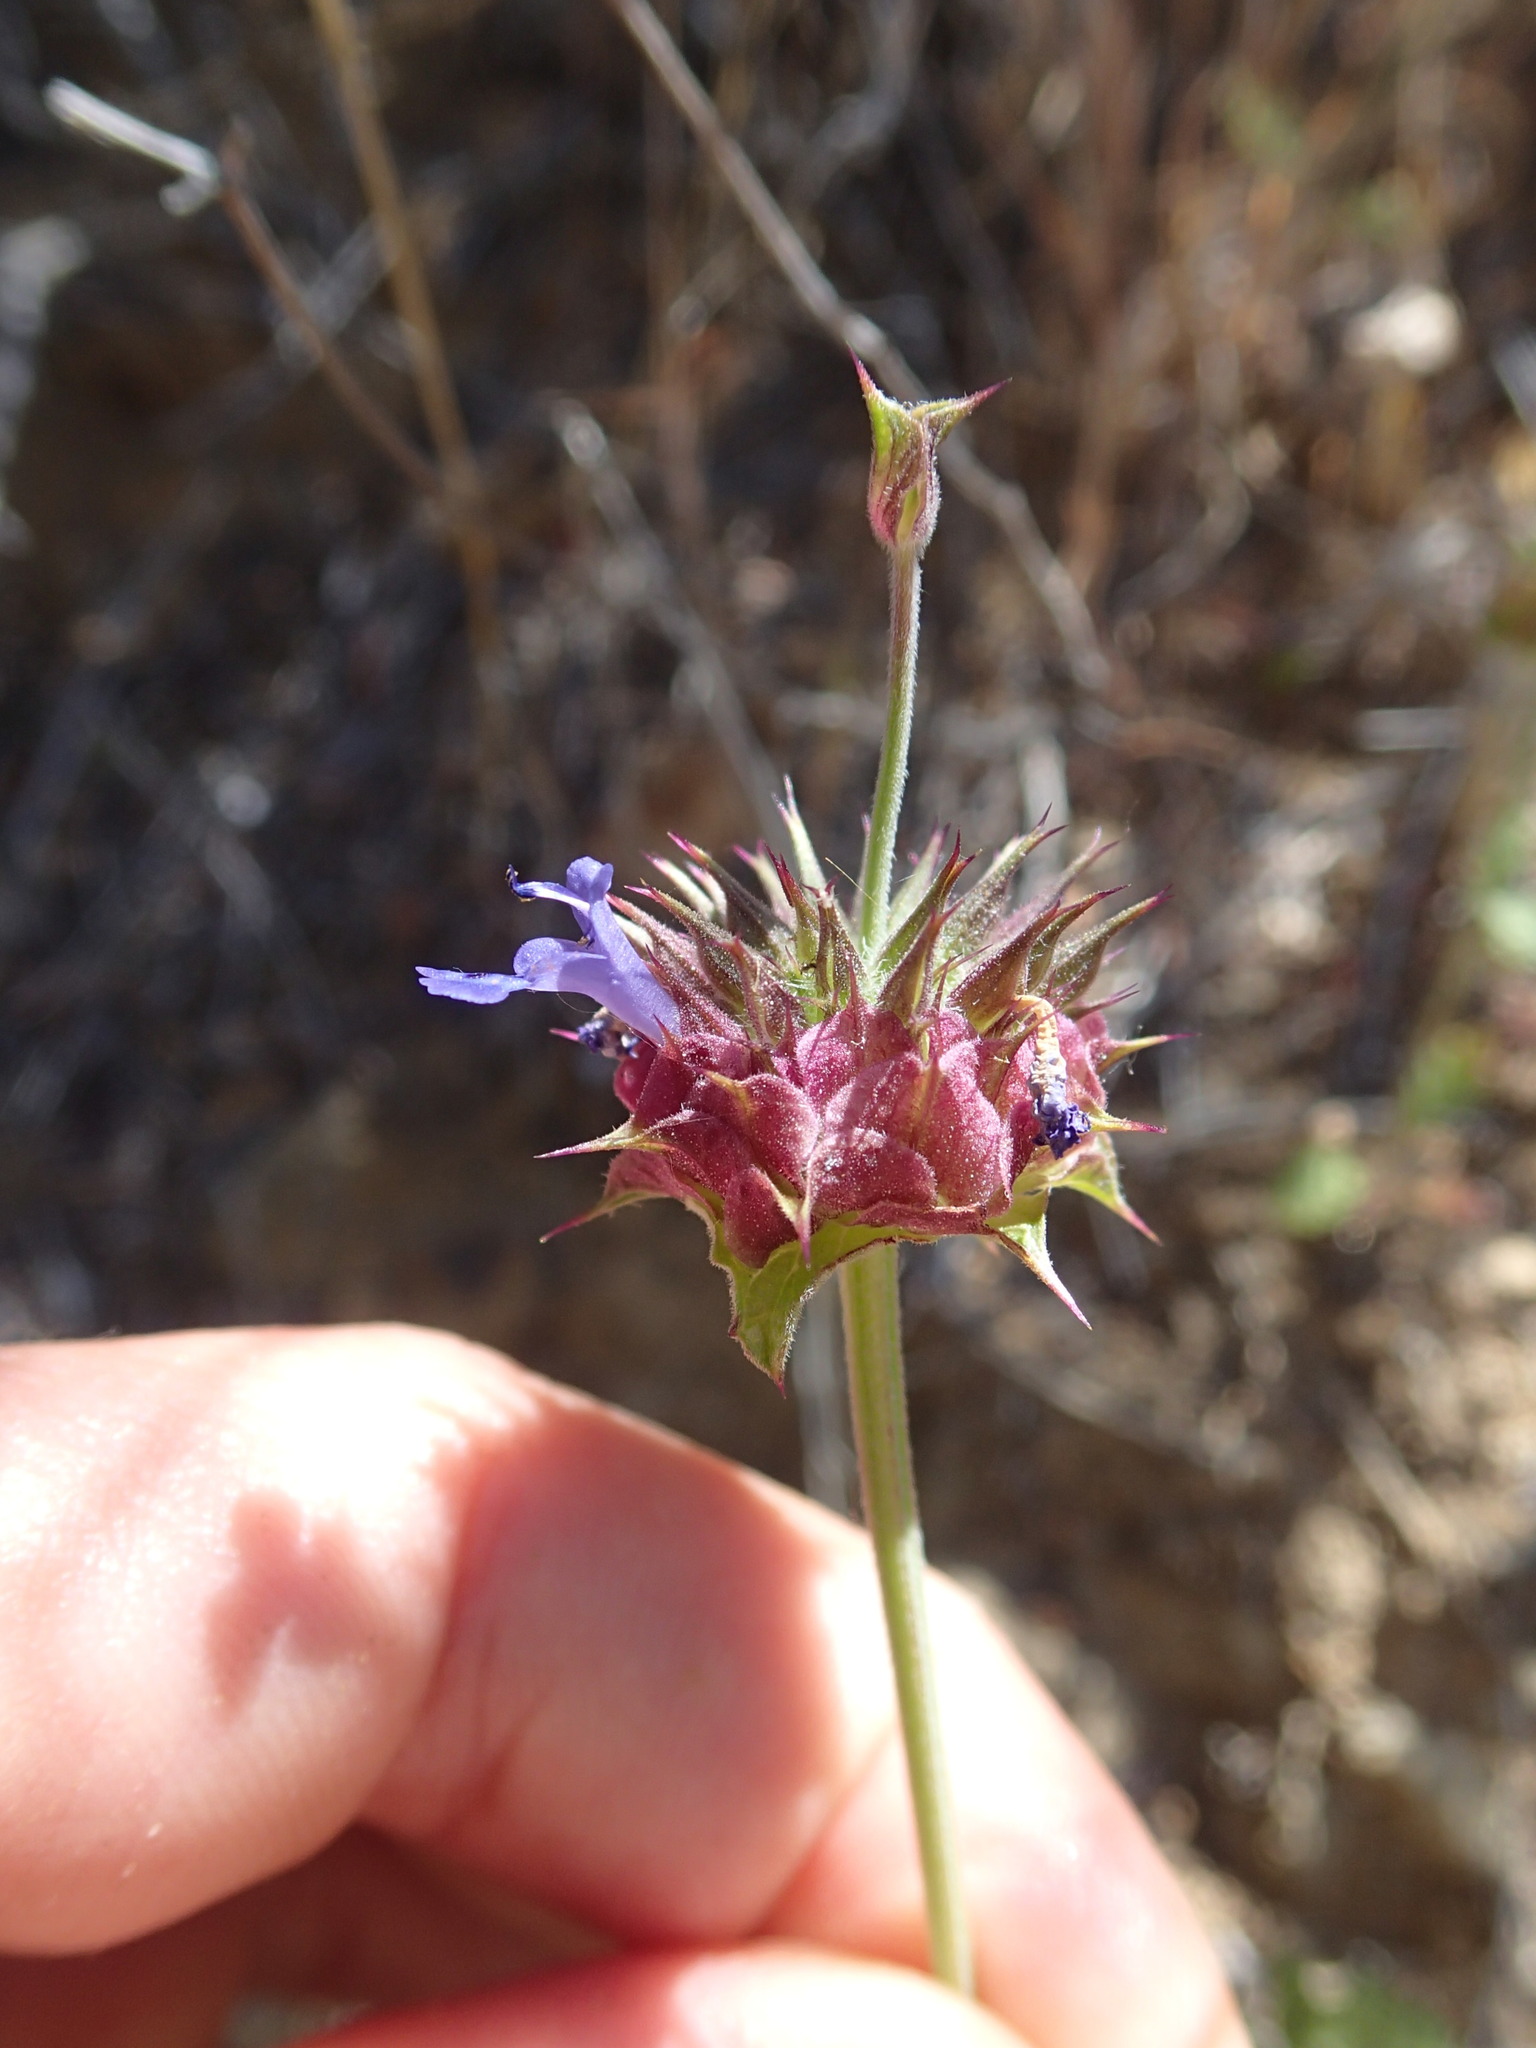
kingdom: Plantae
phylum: Tracheophyta
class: Magnoliopsida
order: Lamiales
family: Lamiaceae
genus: Salvia
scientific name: Salvia columbariae
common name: Chia
